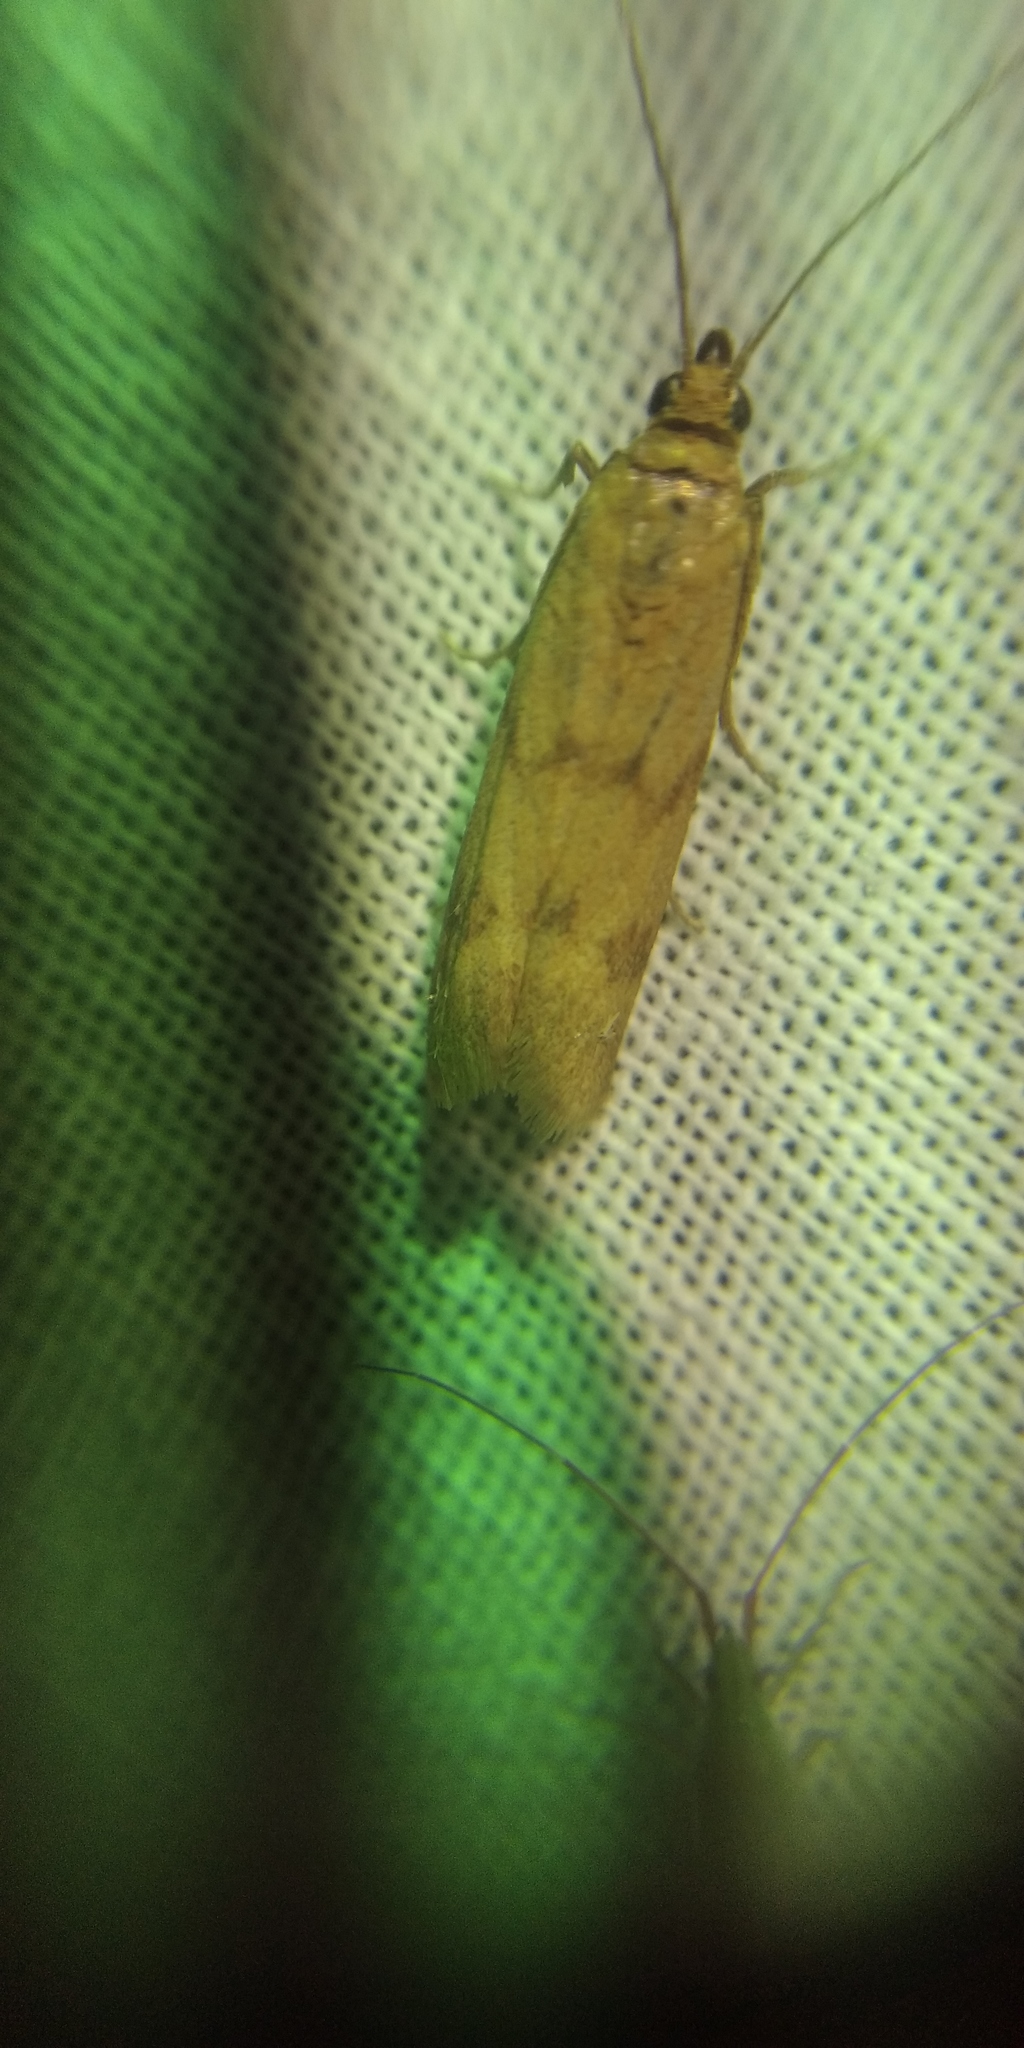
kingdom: Animalia
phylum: Arthropoda
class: Insecta
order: Lepidoptera
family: Pyralidae
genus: Homoeosoma
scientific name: Homoeosoma sinuella
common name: Twin-barred knot-horn
